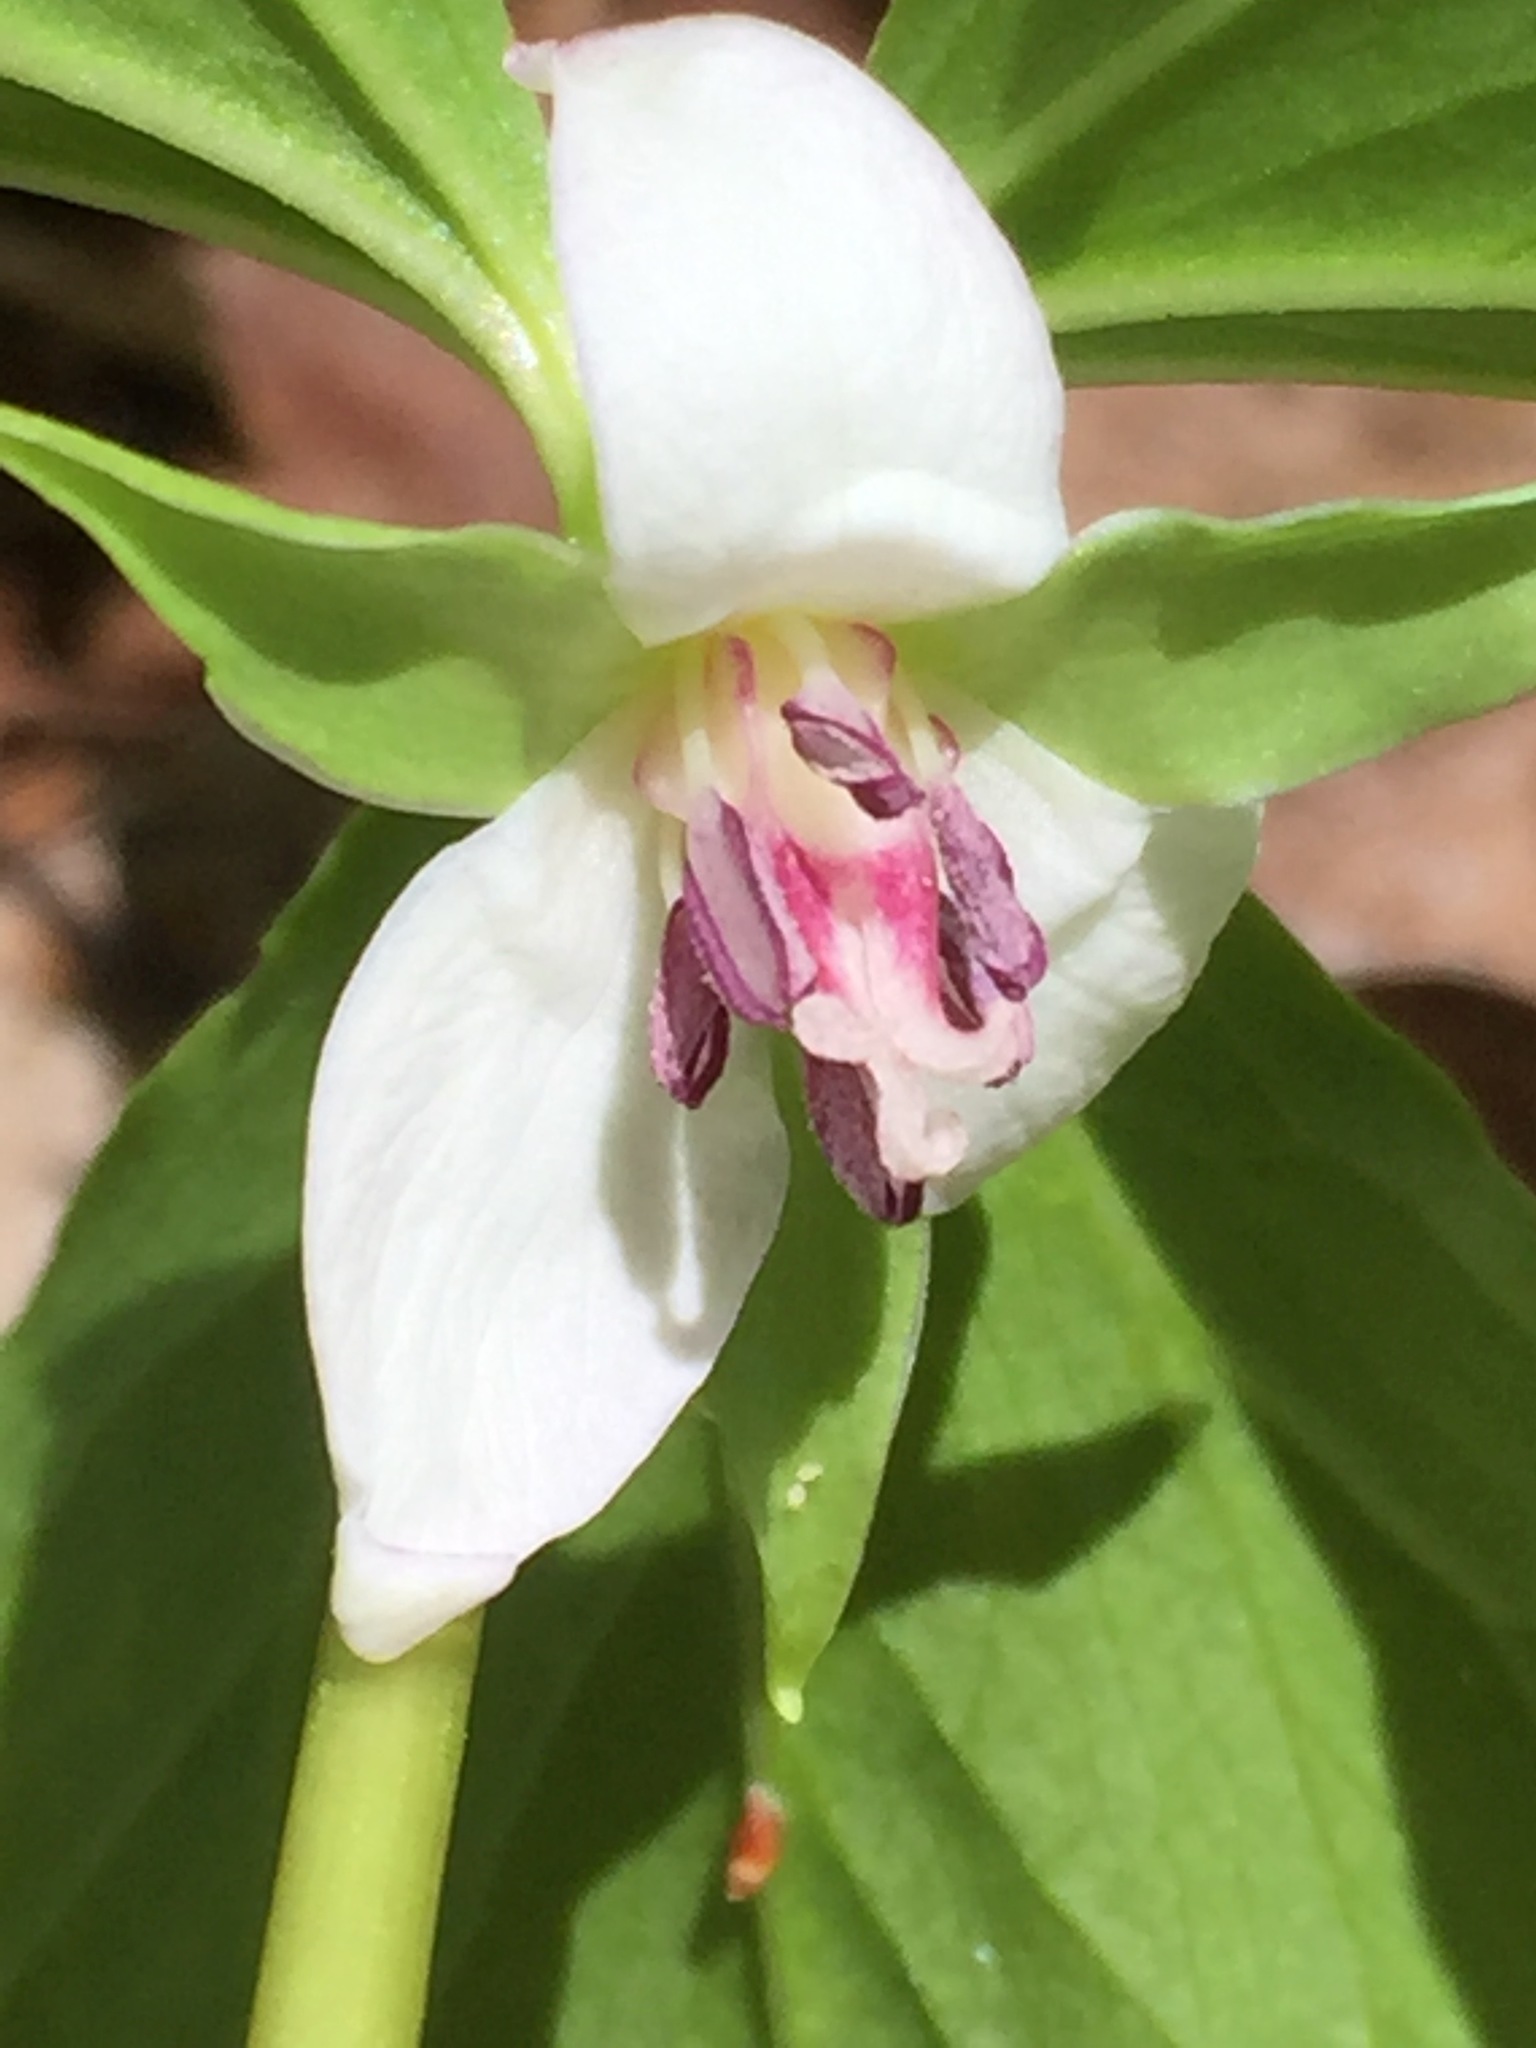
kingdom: Plantae
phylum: Tracheophyta
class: Liliopsida
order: Liliales
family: Melanthiaceae
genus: Trillium
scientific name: Trillium cernuum
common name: Nodding trillium
